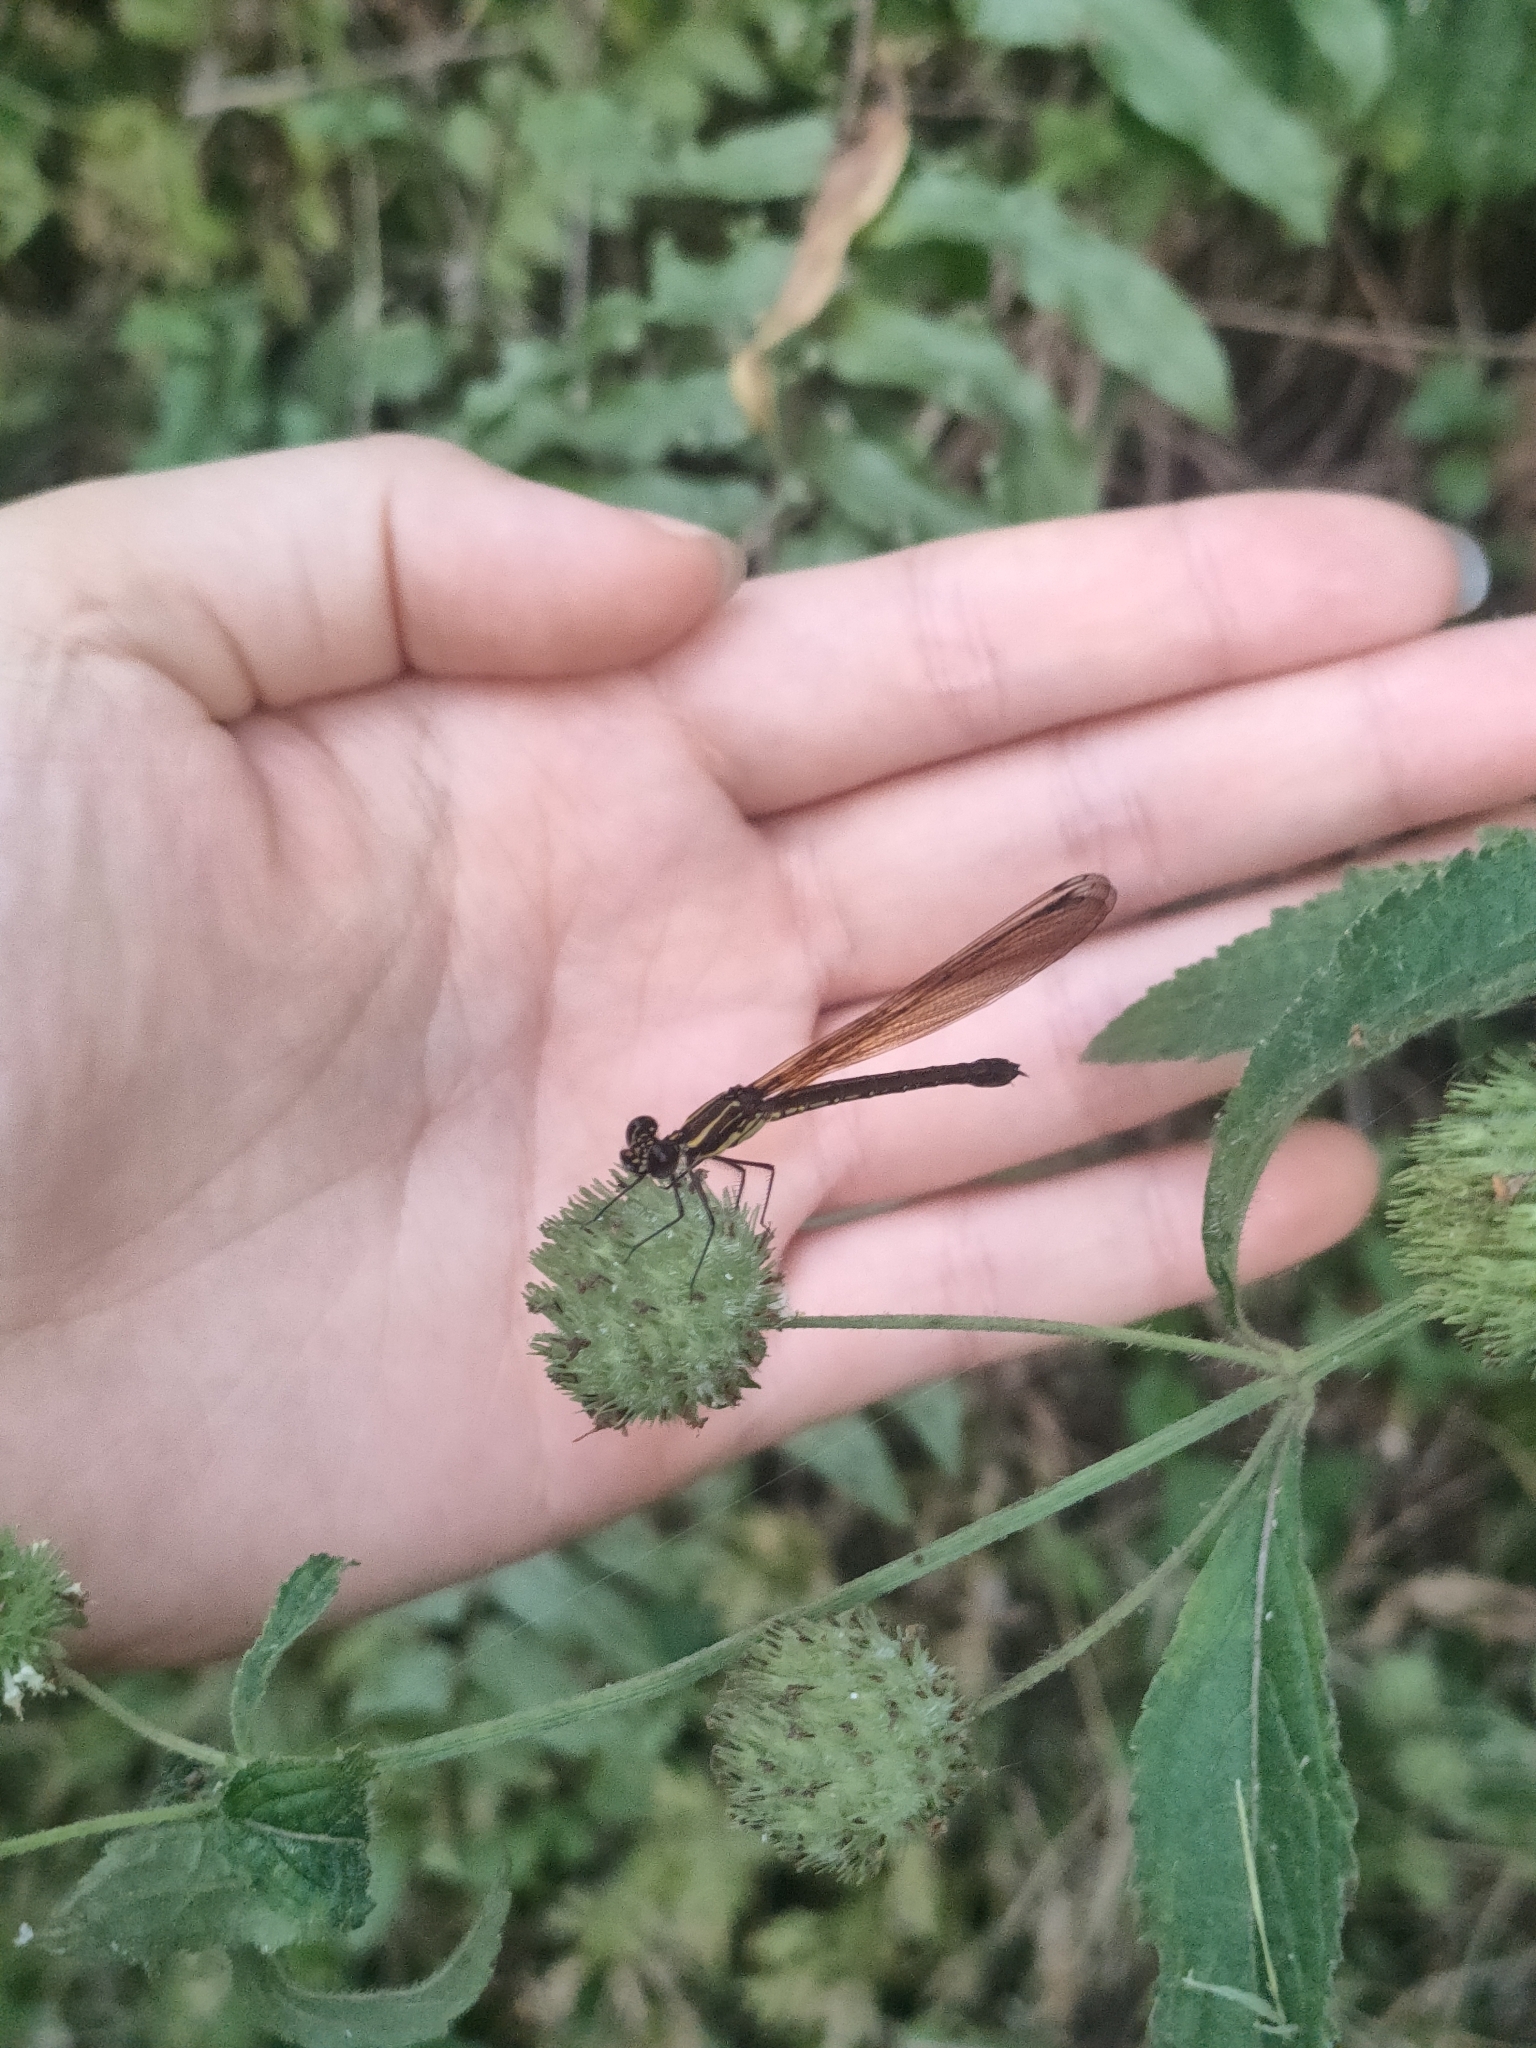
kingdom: Animalia
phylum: Arthropoda
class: Insecta
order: Odonata
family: Chlorocyphidae
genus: Libellago
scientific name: Libellago lineata
